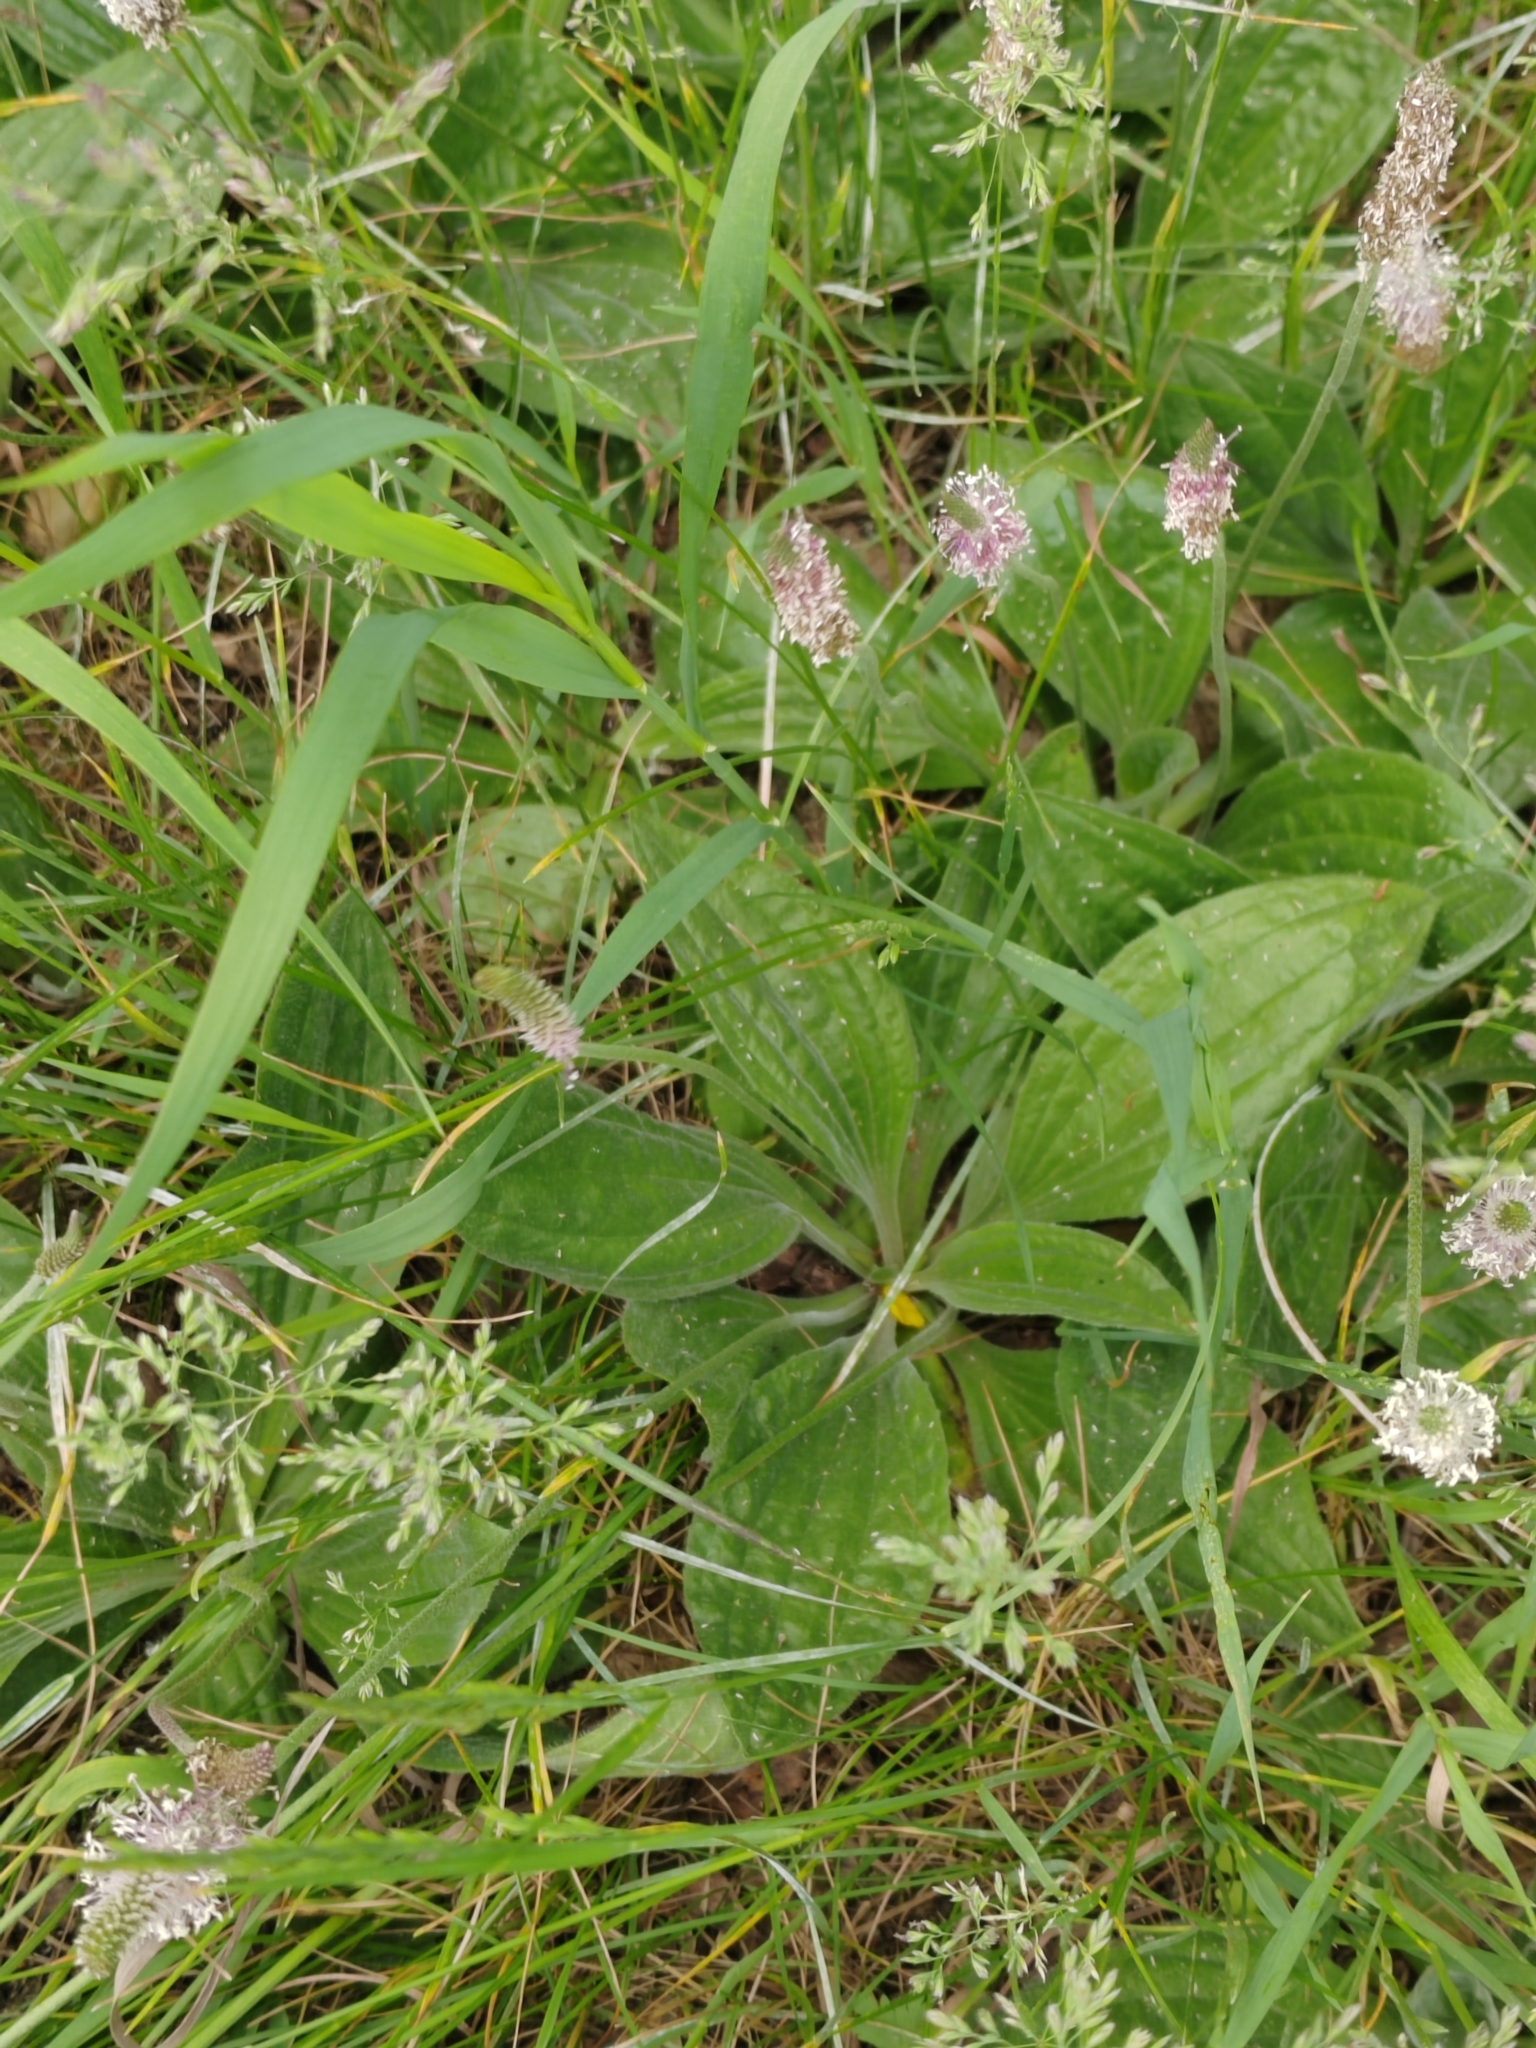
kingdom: Plantae
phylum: Tracheophyta
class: Magnoliopsida
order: Lamiales
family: Plantaginaceae
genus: Plantago
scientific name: Plantago urvillei
